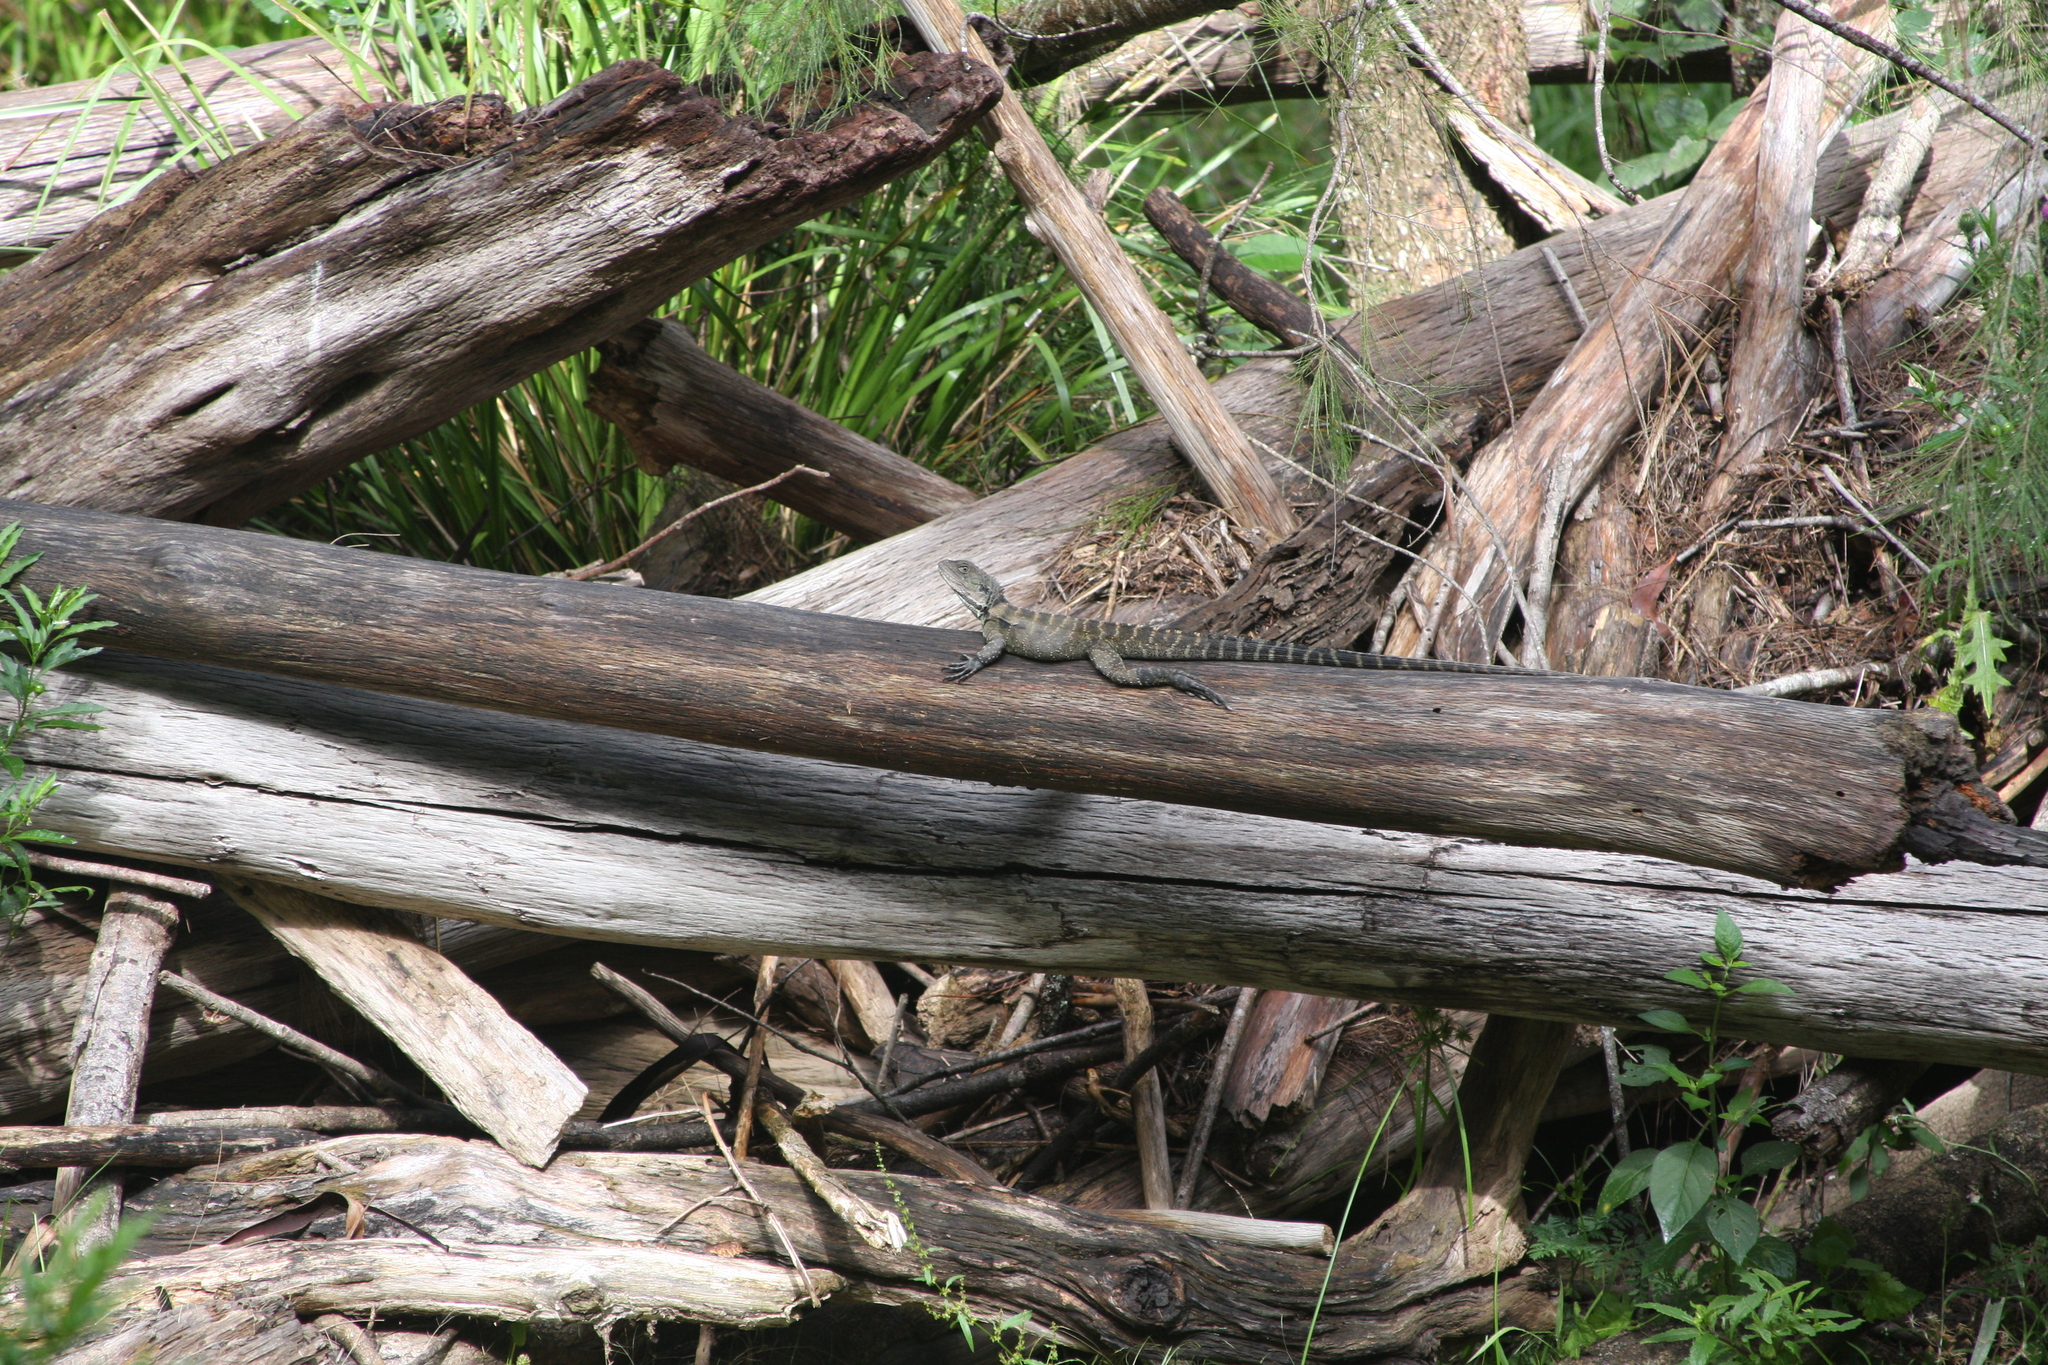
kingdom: Animalia
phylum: Chordata
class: Squamata
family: Agamidae
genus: Intellagama
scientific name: Intellagama lesueurii
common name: Eastern water dragon
